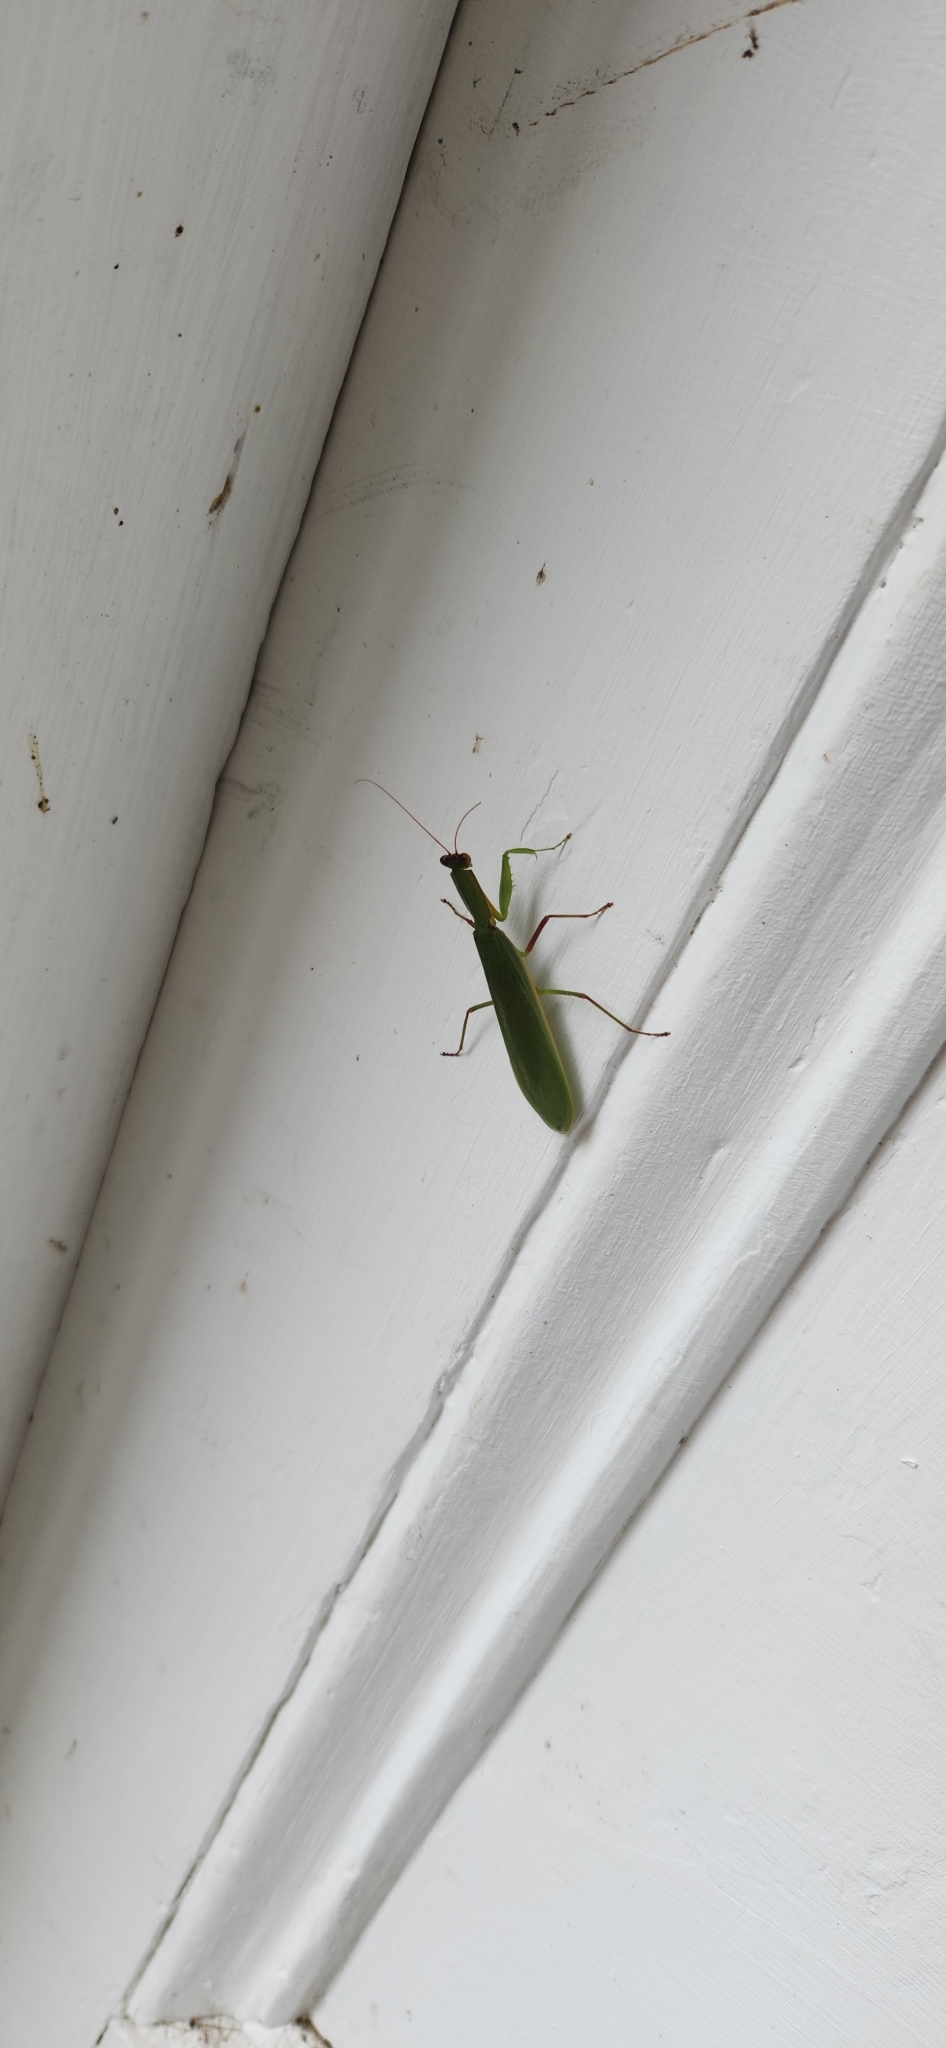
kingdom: Animalia
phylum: Arthropoda
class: Insecta
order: Mantodea
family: Mantidae
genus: Orthodera
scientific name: Orthodera novaezealandiae
